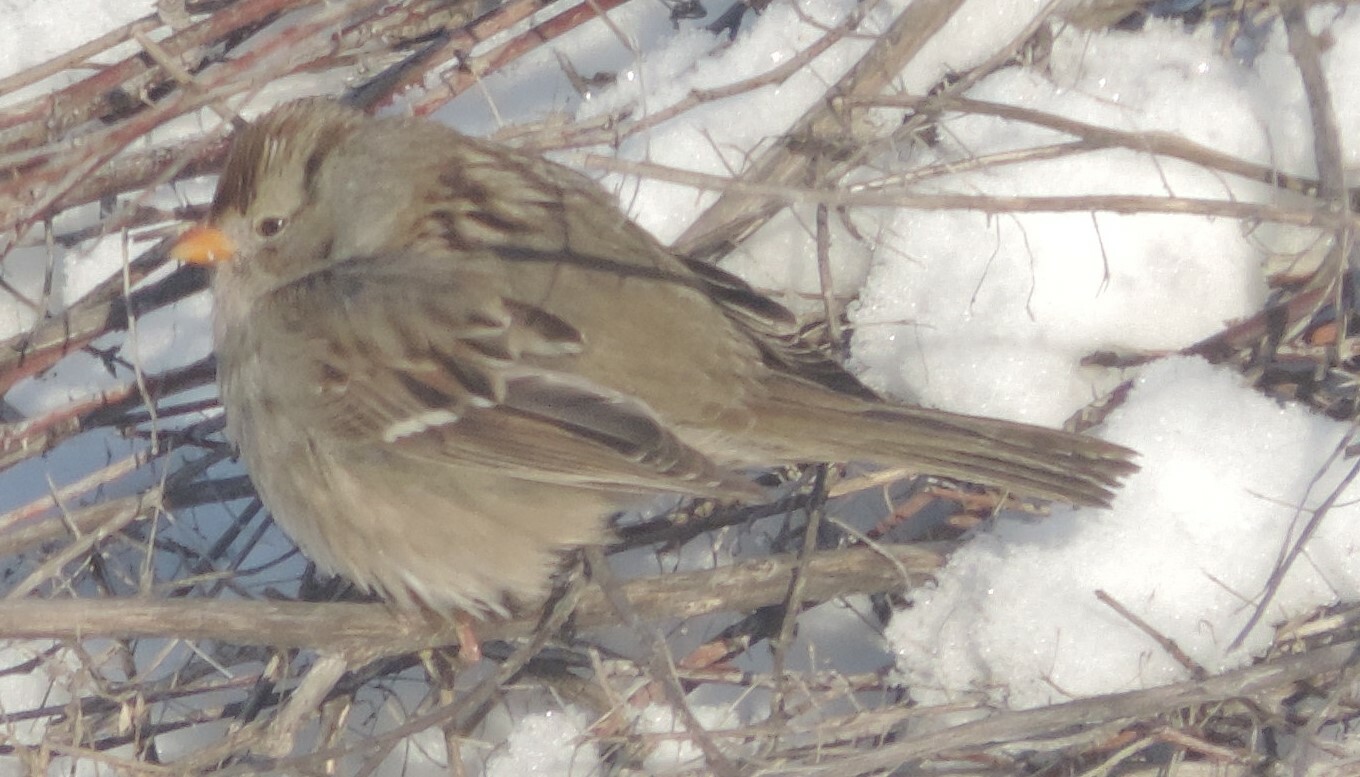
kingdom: Animalia
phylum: Chordata
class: Aves
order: Passeriformes
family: Passerellidae
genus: Zonotrichia
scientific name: Zonotrichia leucophrys
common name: White-crowned sparrow
